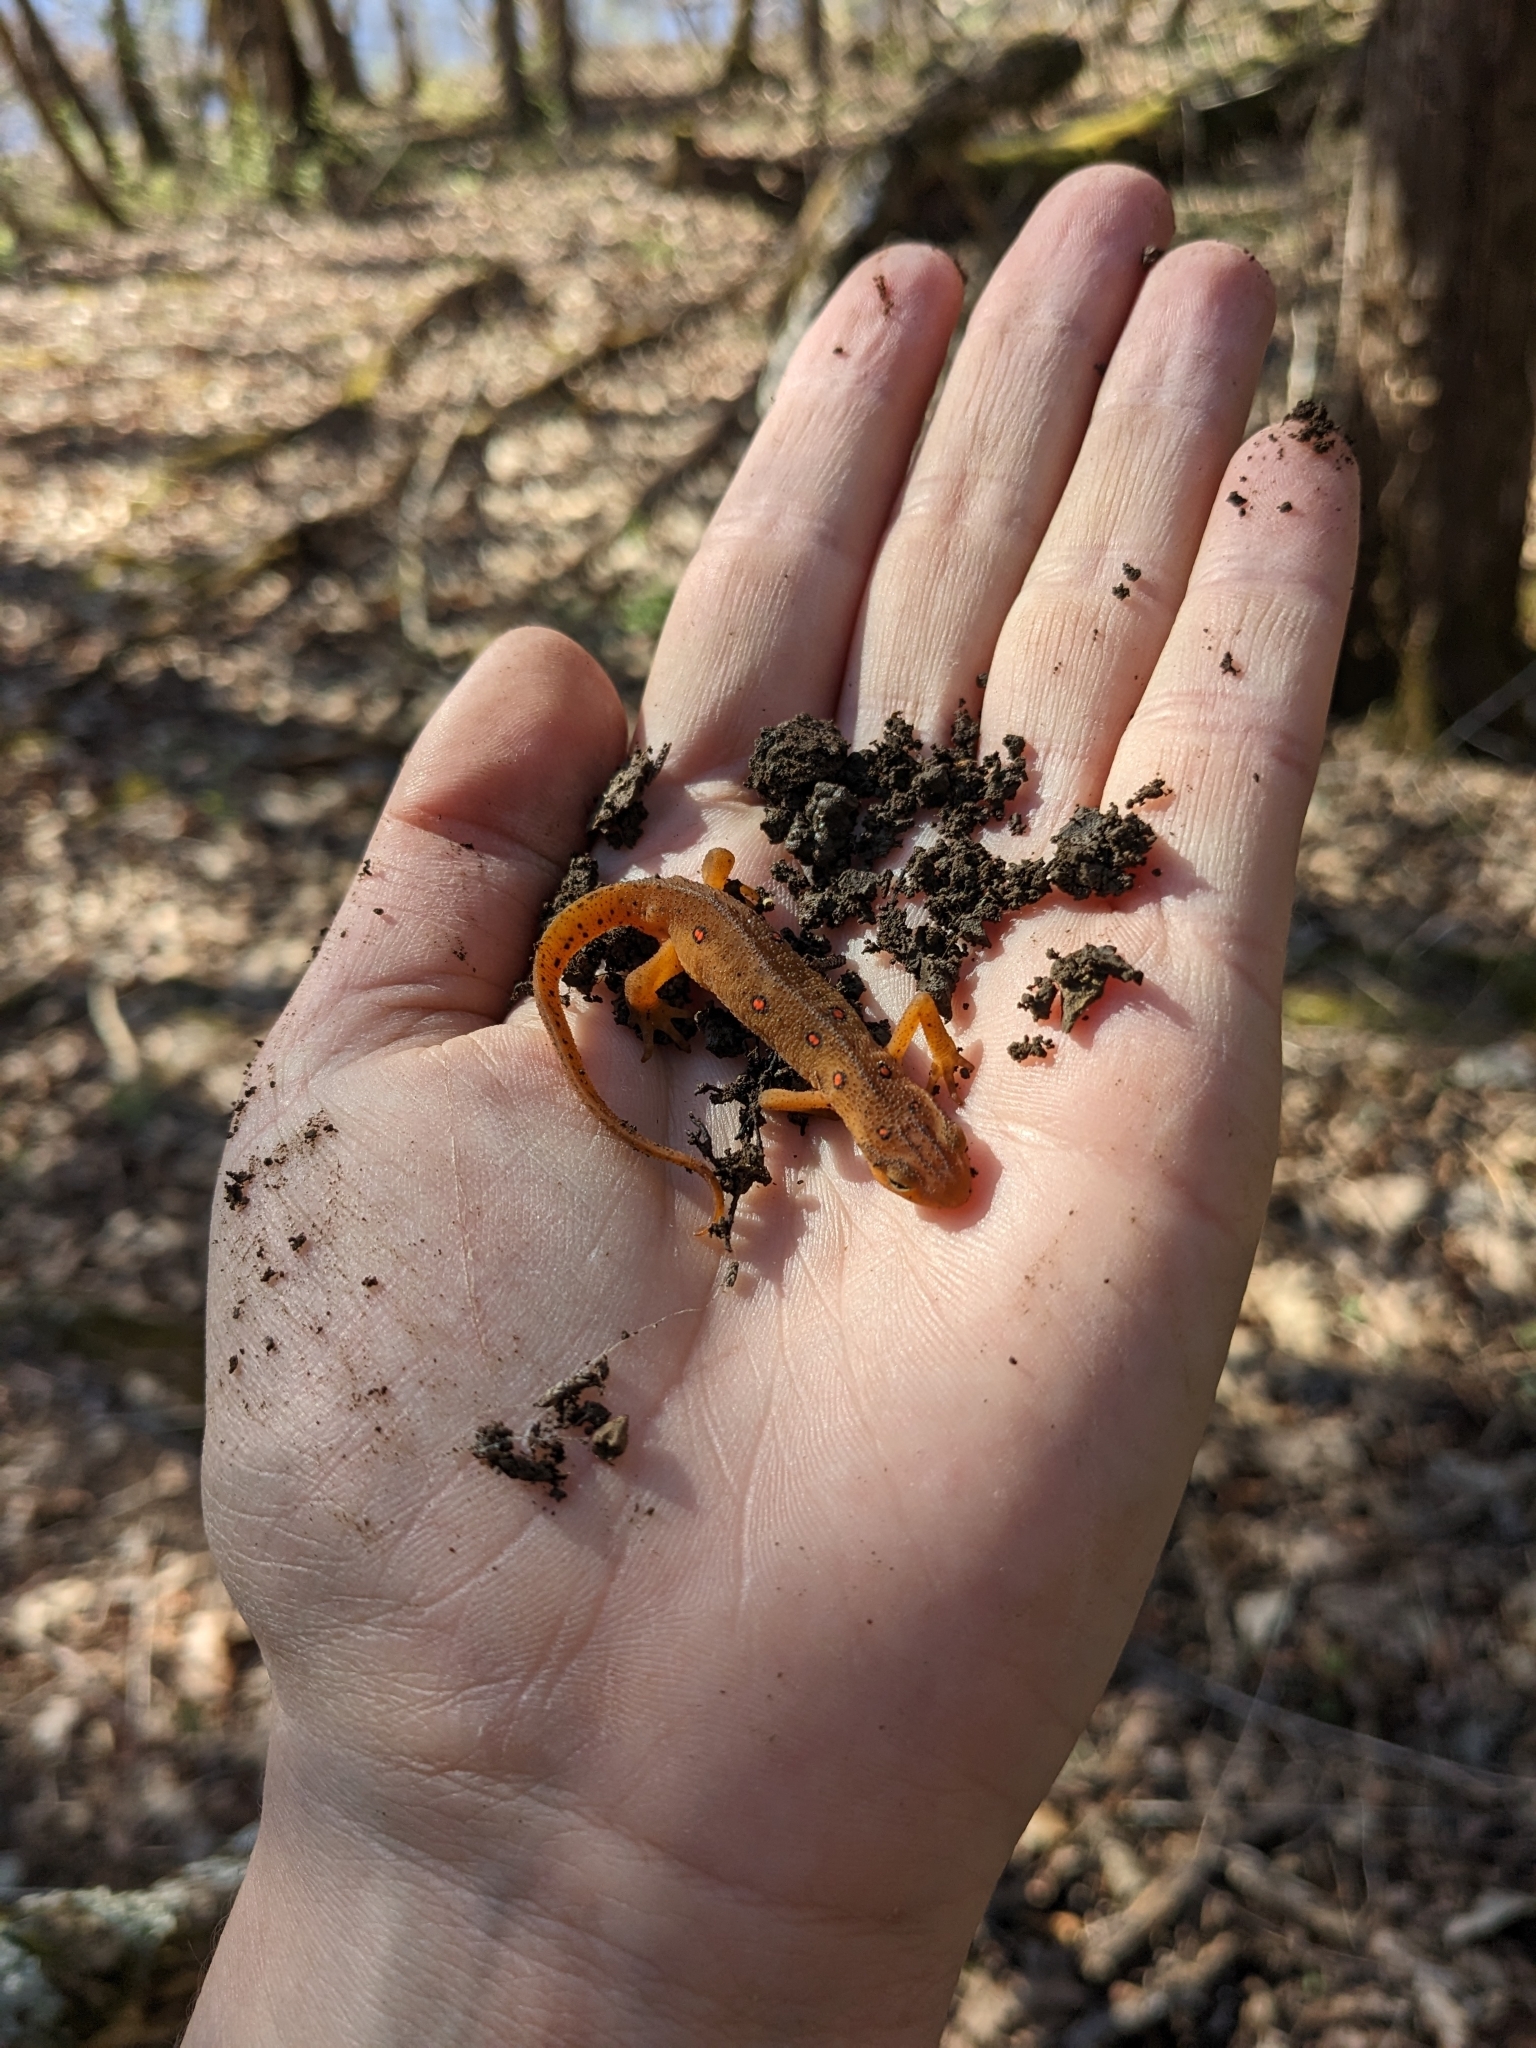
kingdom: Animalia
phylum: Chordata
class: Amphibia
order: Caudata
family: Salamandridae
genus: Notophthalmus
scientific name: Notophthalmus viridescens
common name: Eastern newt
